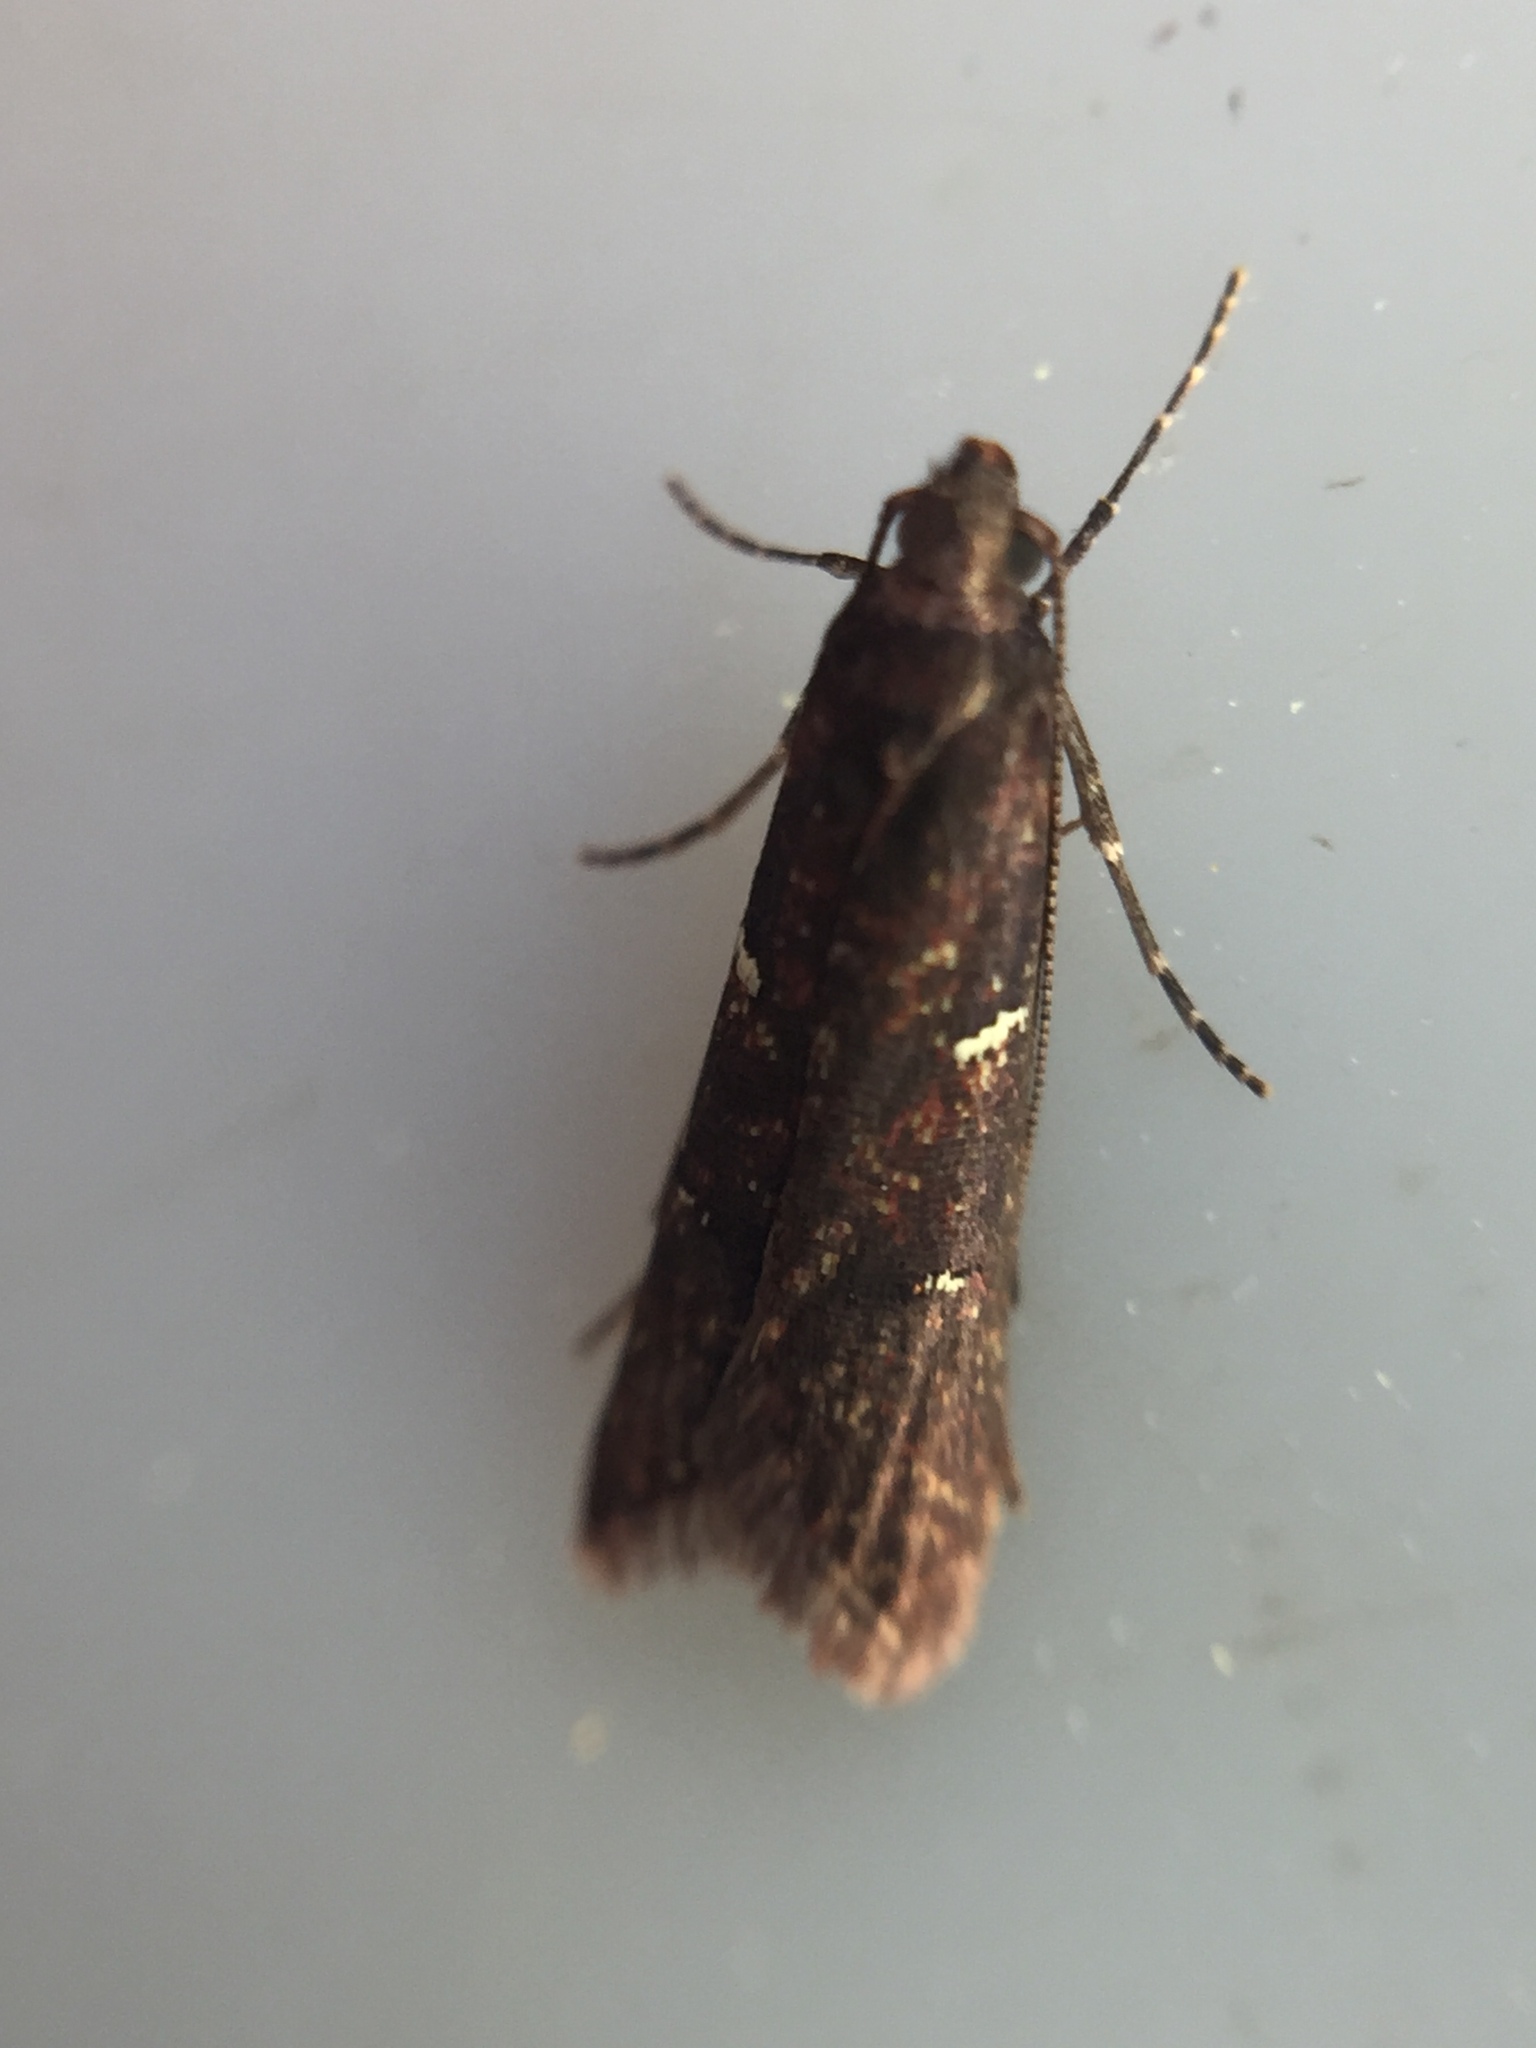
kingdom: Animalia
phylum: Arthropoda
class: Insecta
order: Lepidoptera
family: Plutellidae
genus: Cadmogenes
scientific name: Cadmogenes literata
